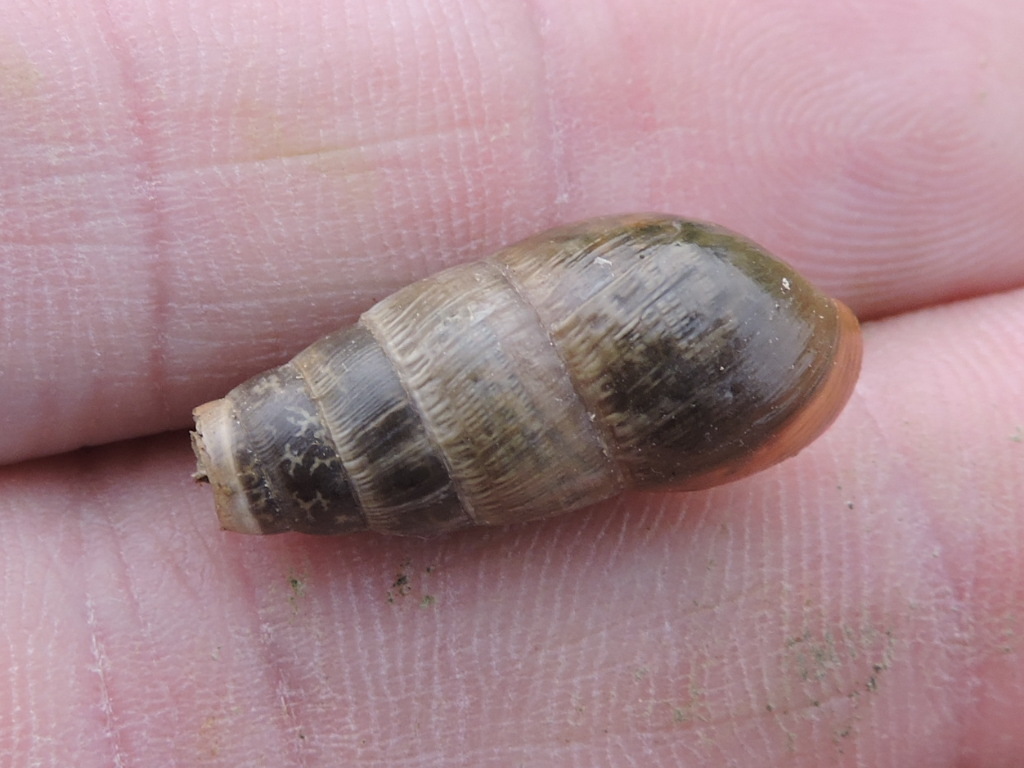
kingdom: Animalia
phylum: Mollusca
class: Gastropoda
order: Stylommatophora
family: Achatinidae
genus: Rumina
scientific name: Rumina decollata
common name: Decollate snail
